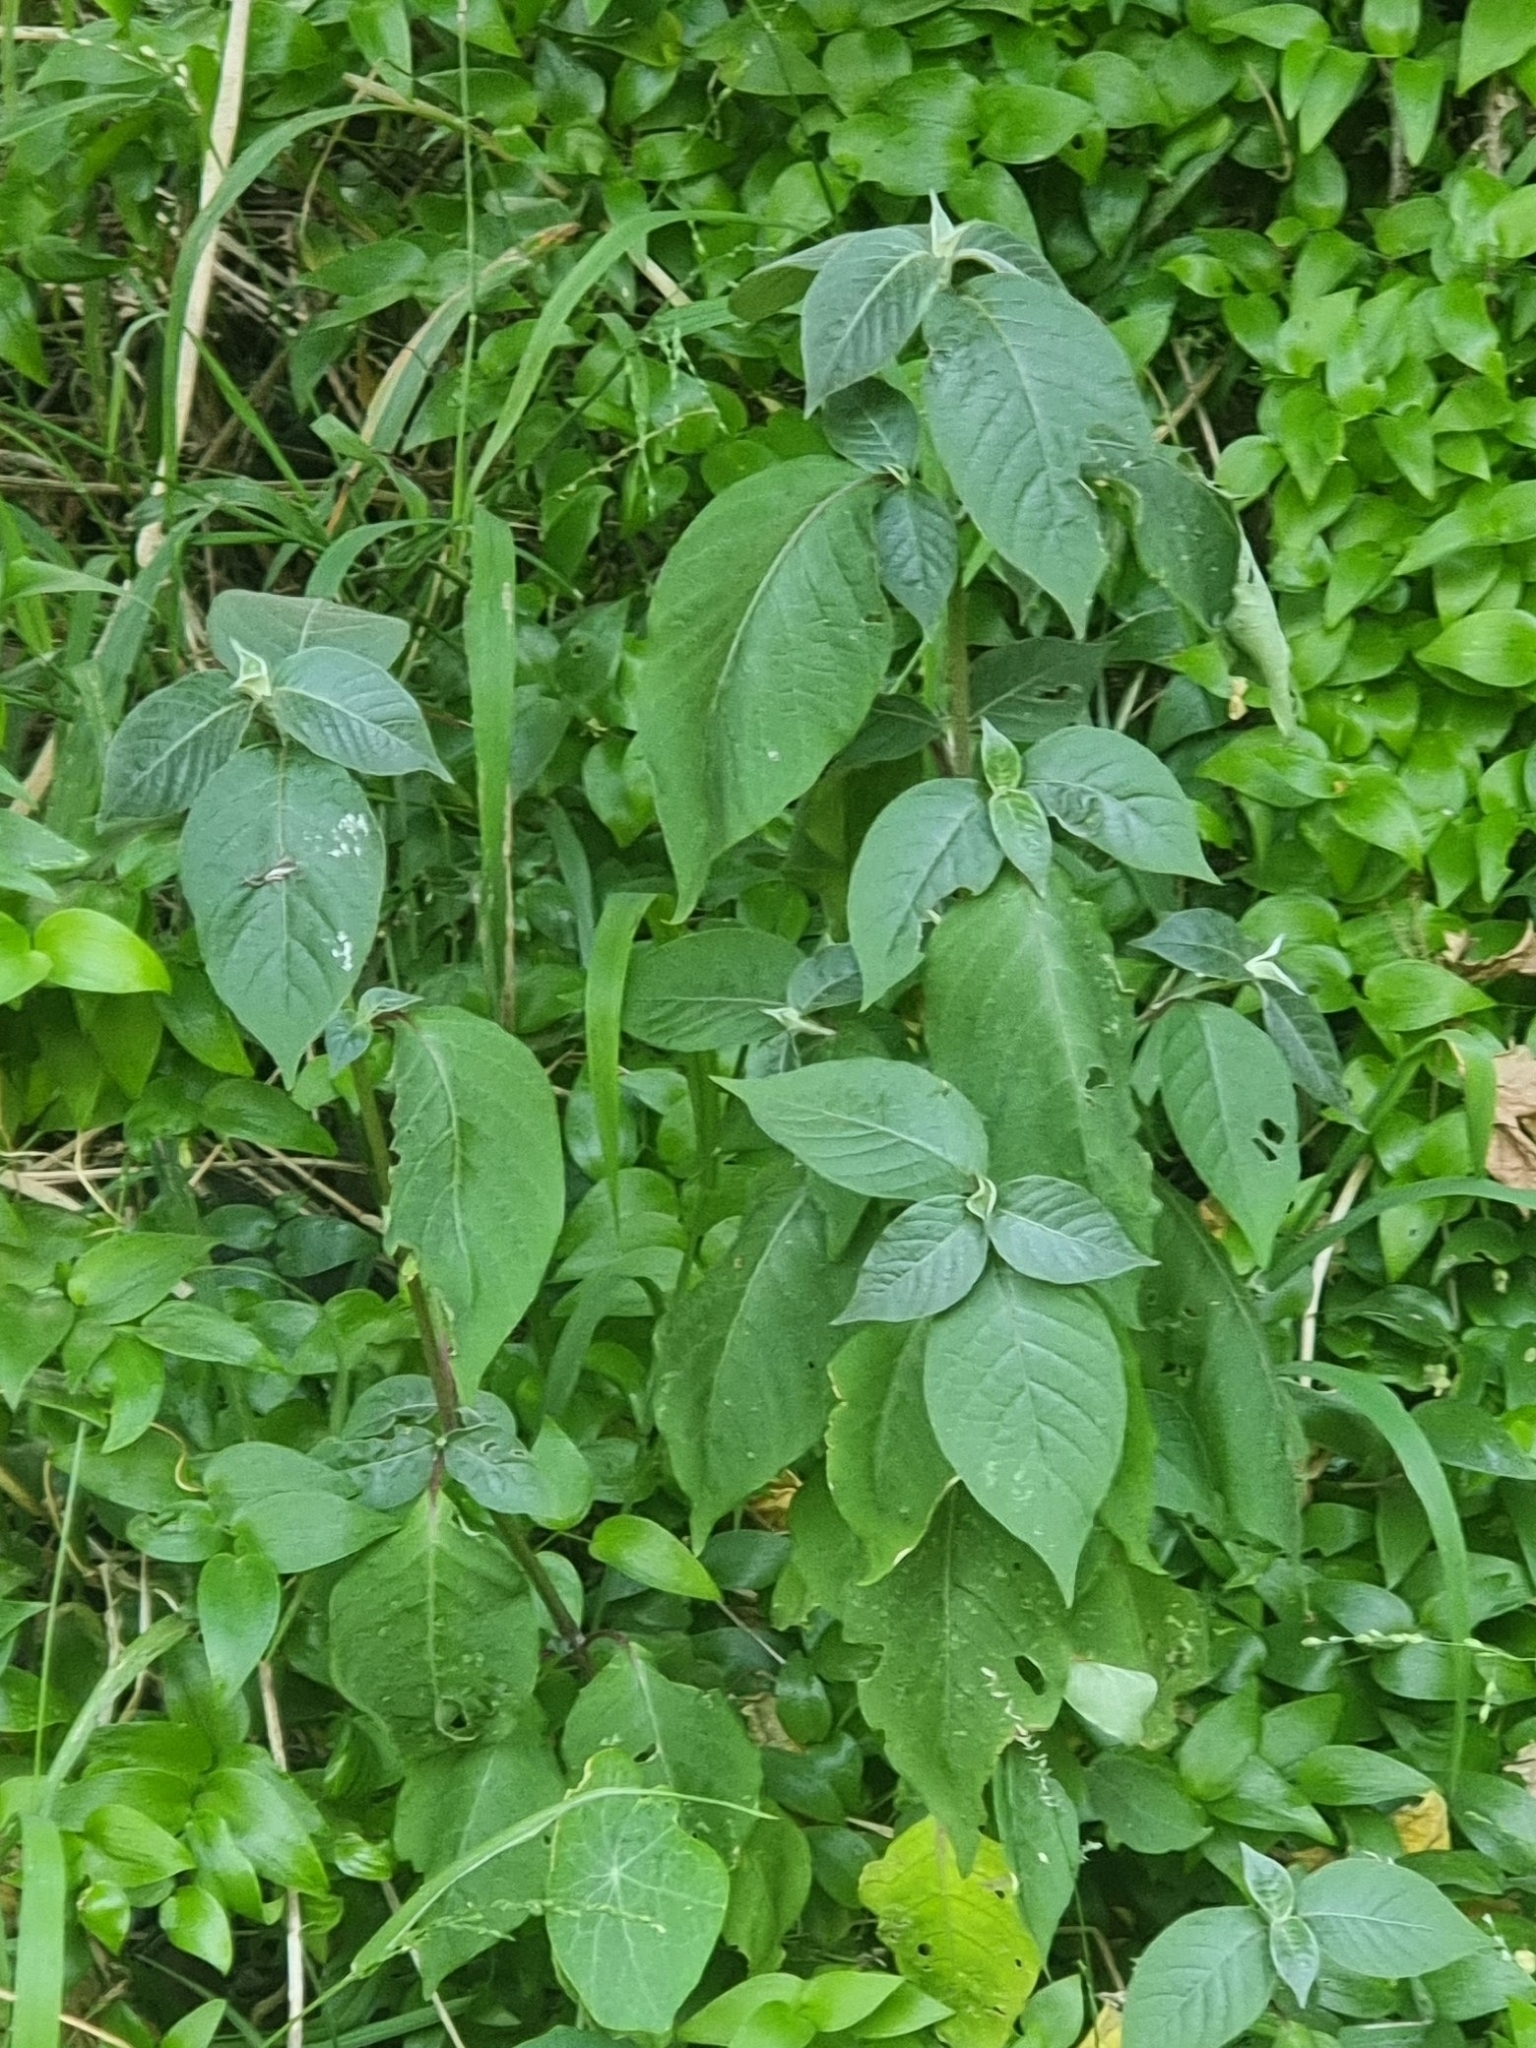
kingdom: Plantae
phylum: Tracheophyta
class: Magnoliopsida
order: Caryophyllales
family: Amaranthaceae
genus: Achyranthes
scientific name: Achyranthes aspera
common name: Devil's horsewhip
